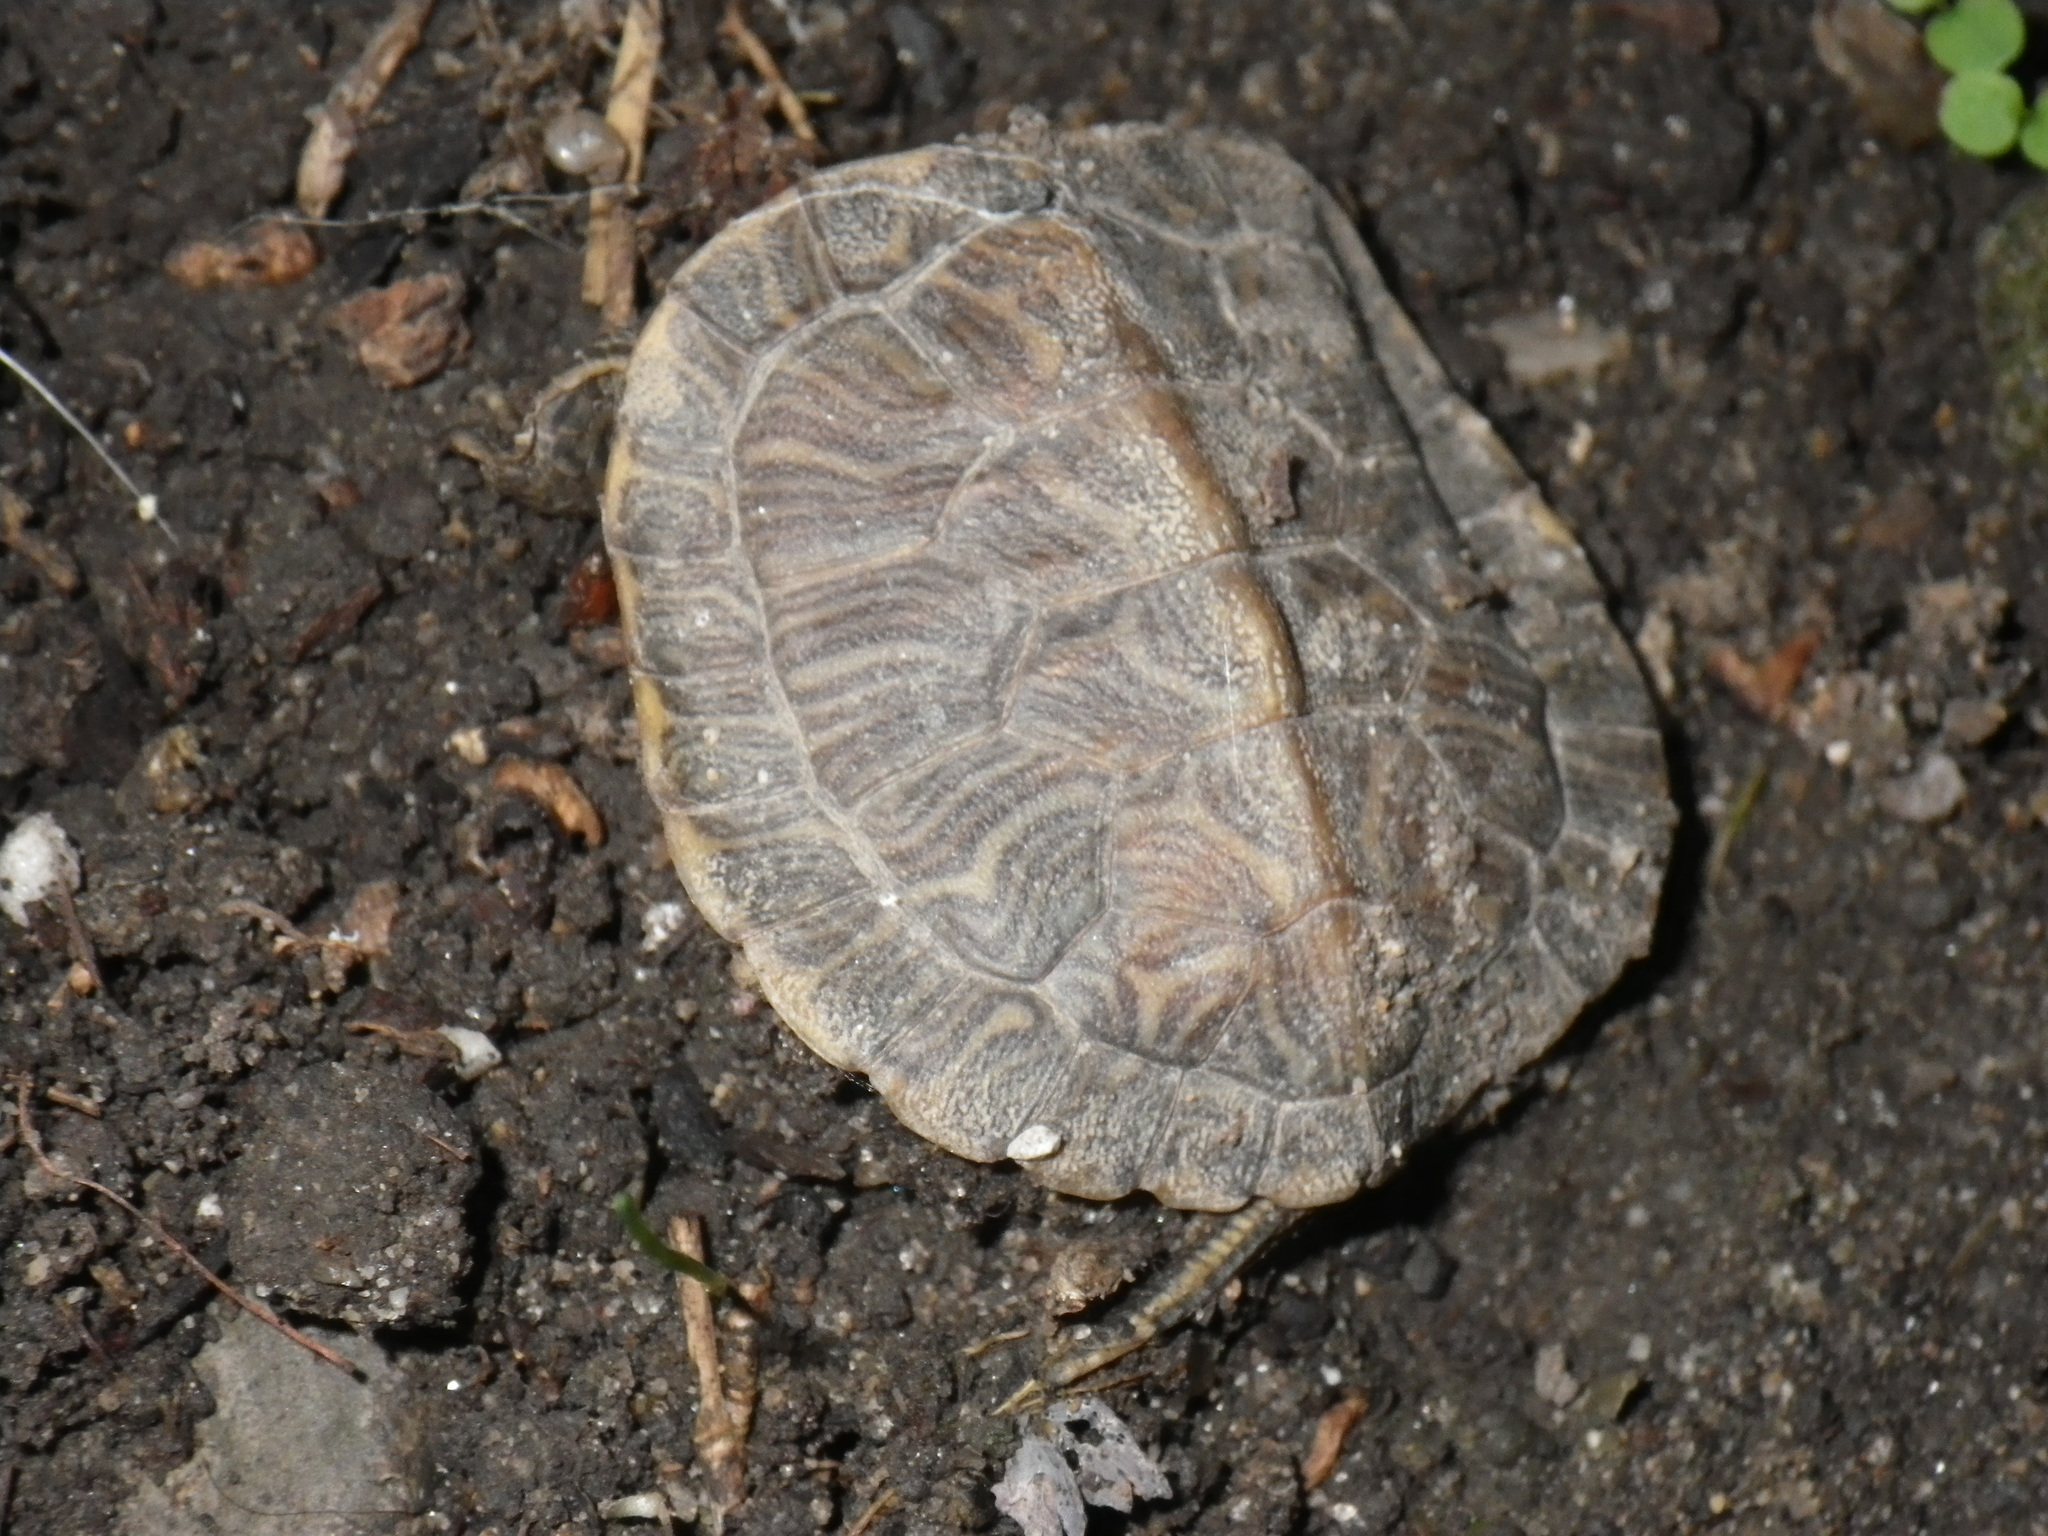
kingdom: Animalia
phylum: Chordata
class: Testudines
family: Emydidae
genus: Trachemys
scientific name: Trachemys scripta
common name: Slider
